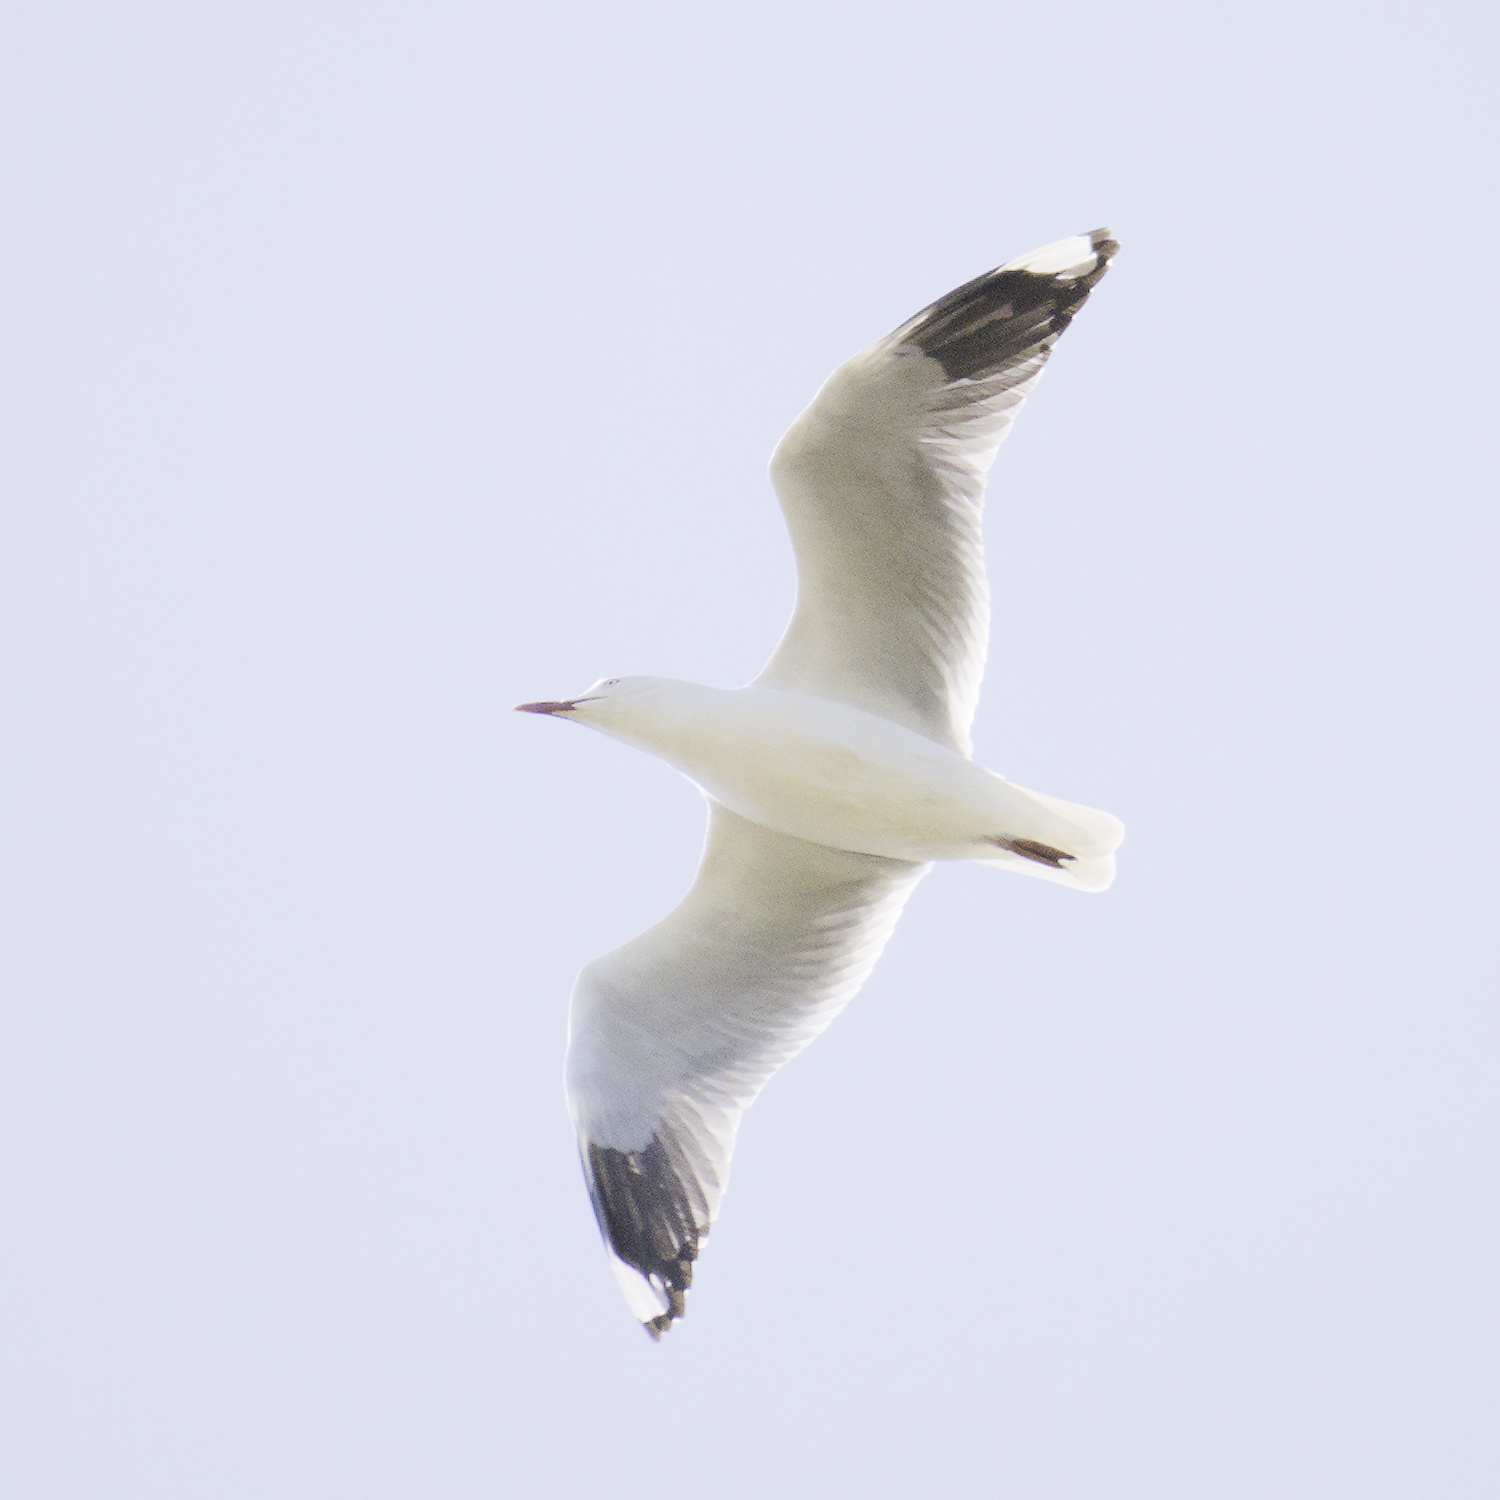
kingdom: Animalia
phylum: Chordata
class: Aves
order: Charadriiformes
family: Laridae
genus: Chroicocephalus
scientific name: Chroicocephalus novaehollandiae
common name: Silver gull
